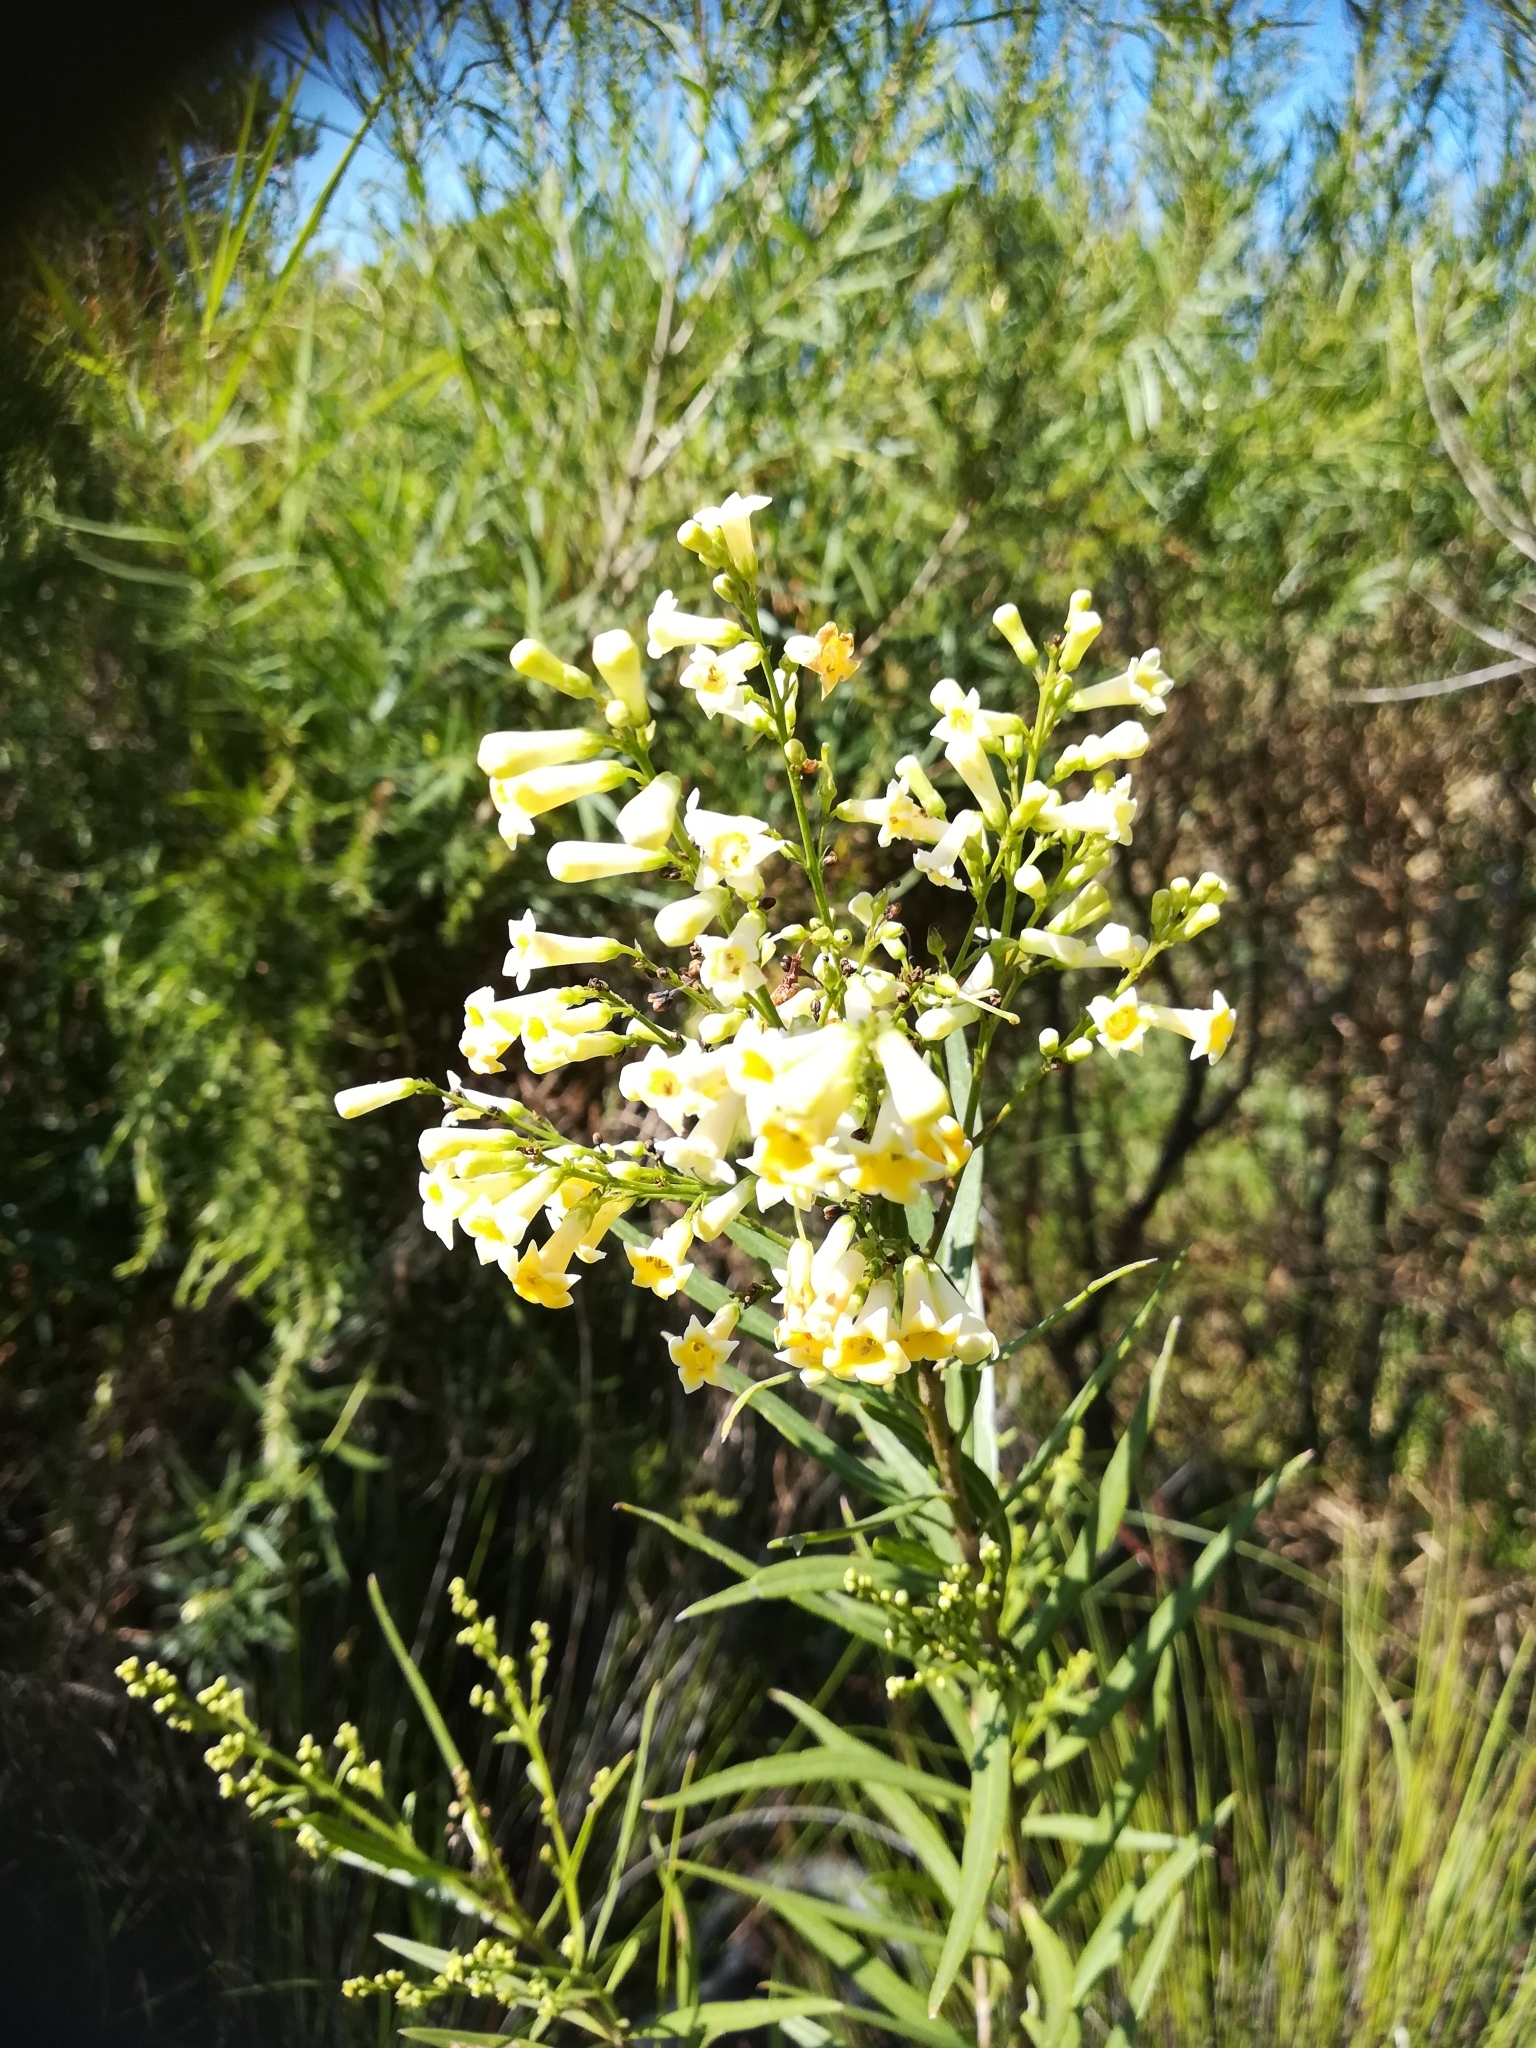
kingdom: Plantae
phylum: Tracheophyta
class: Magnoliopsida
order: Lamiales
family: Scrophulariaceae
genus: Freylinia
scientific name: Freylinia lanceolata
